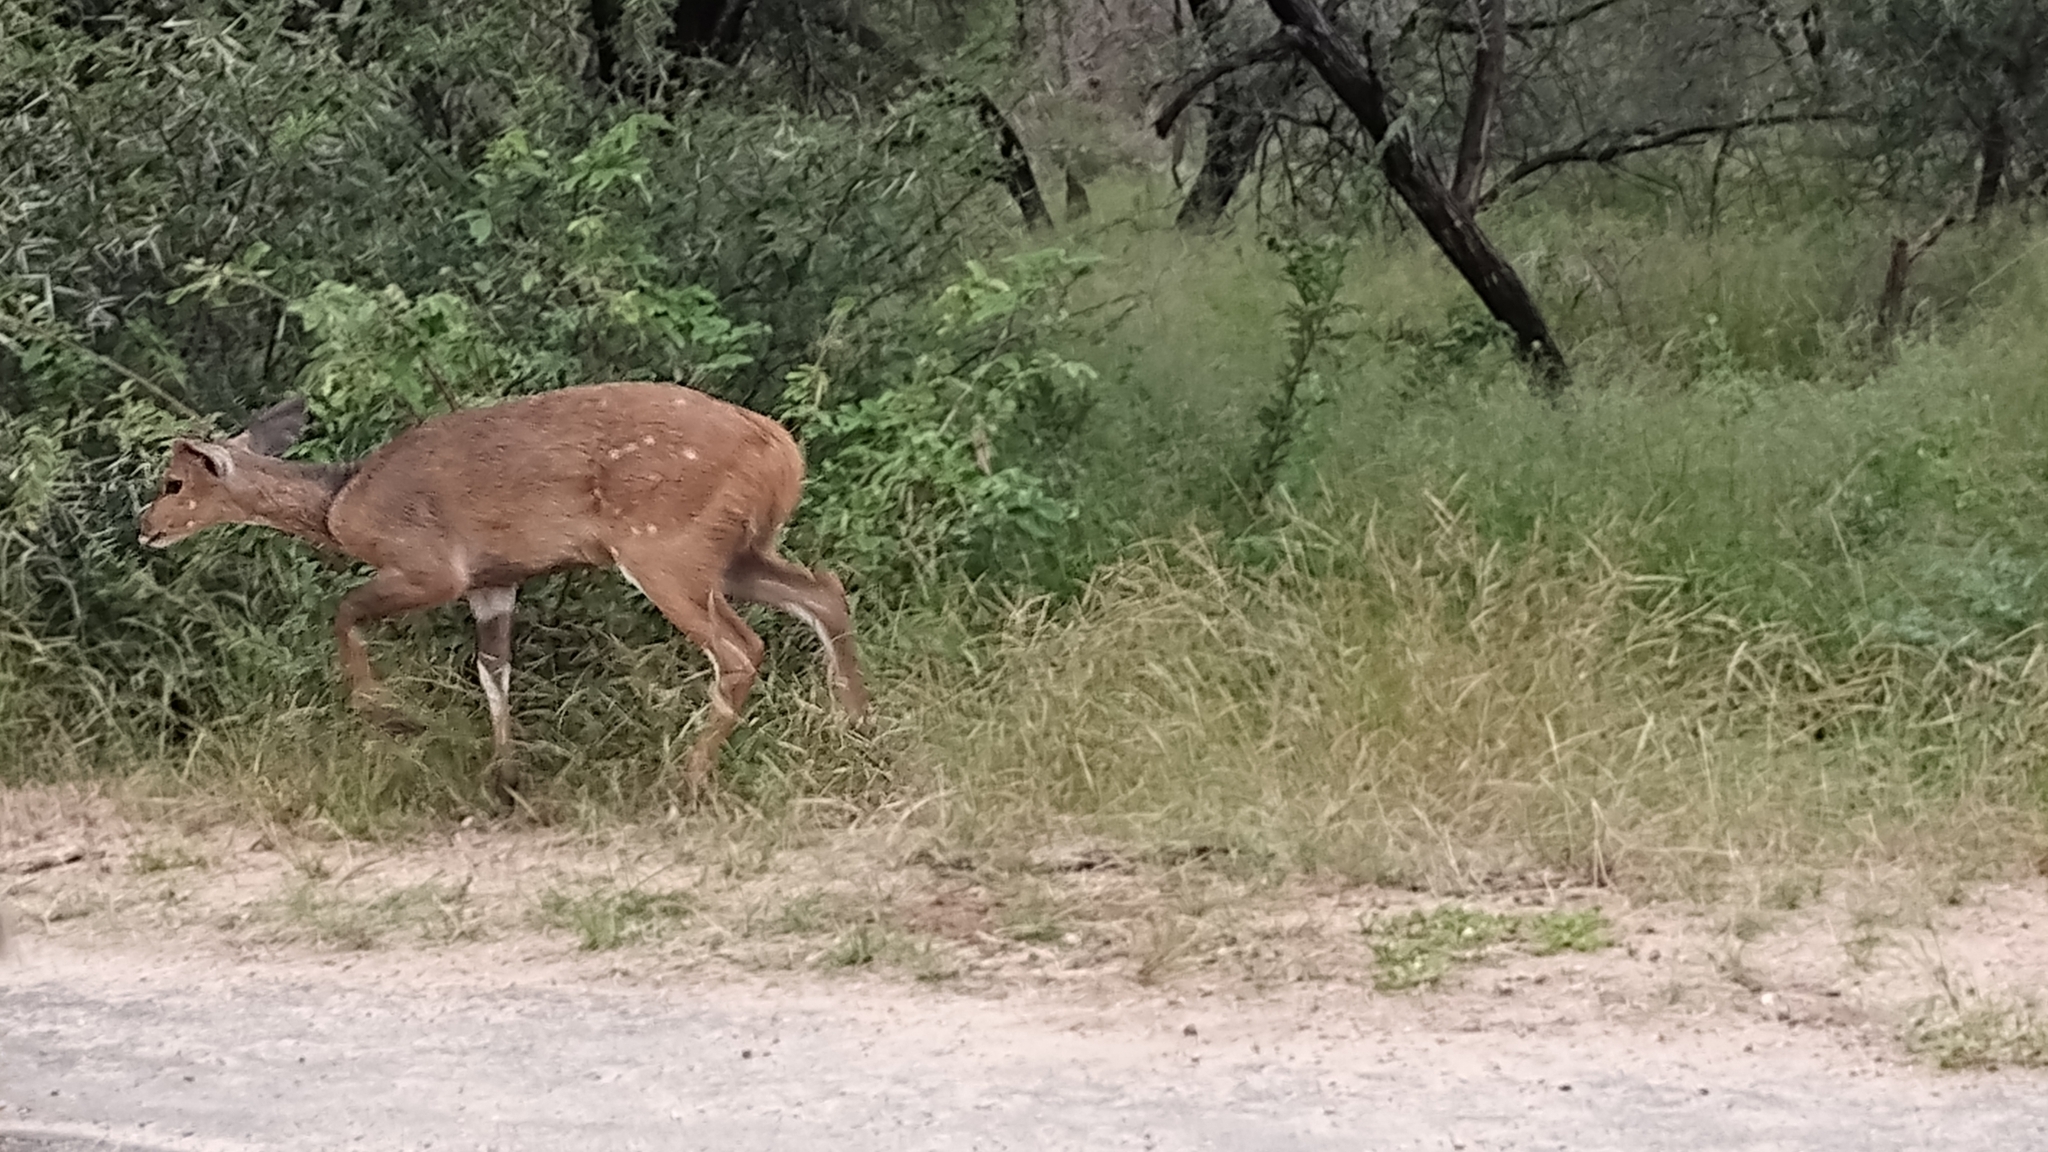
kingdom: Animalia
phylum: Chordata
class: Mammalia
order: Artiodactyla
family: Bovidae
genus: Tragelaphus
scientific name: Tragelaphus scriptus
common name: Bushbuck
